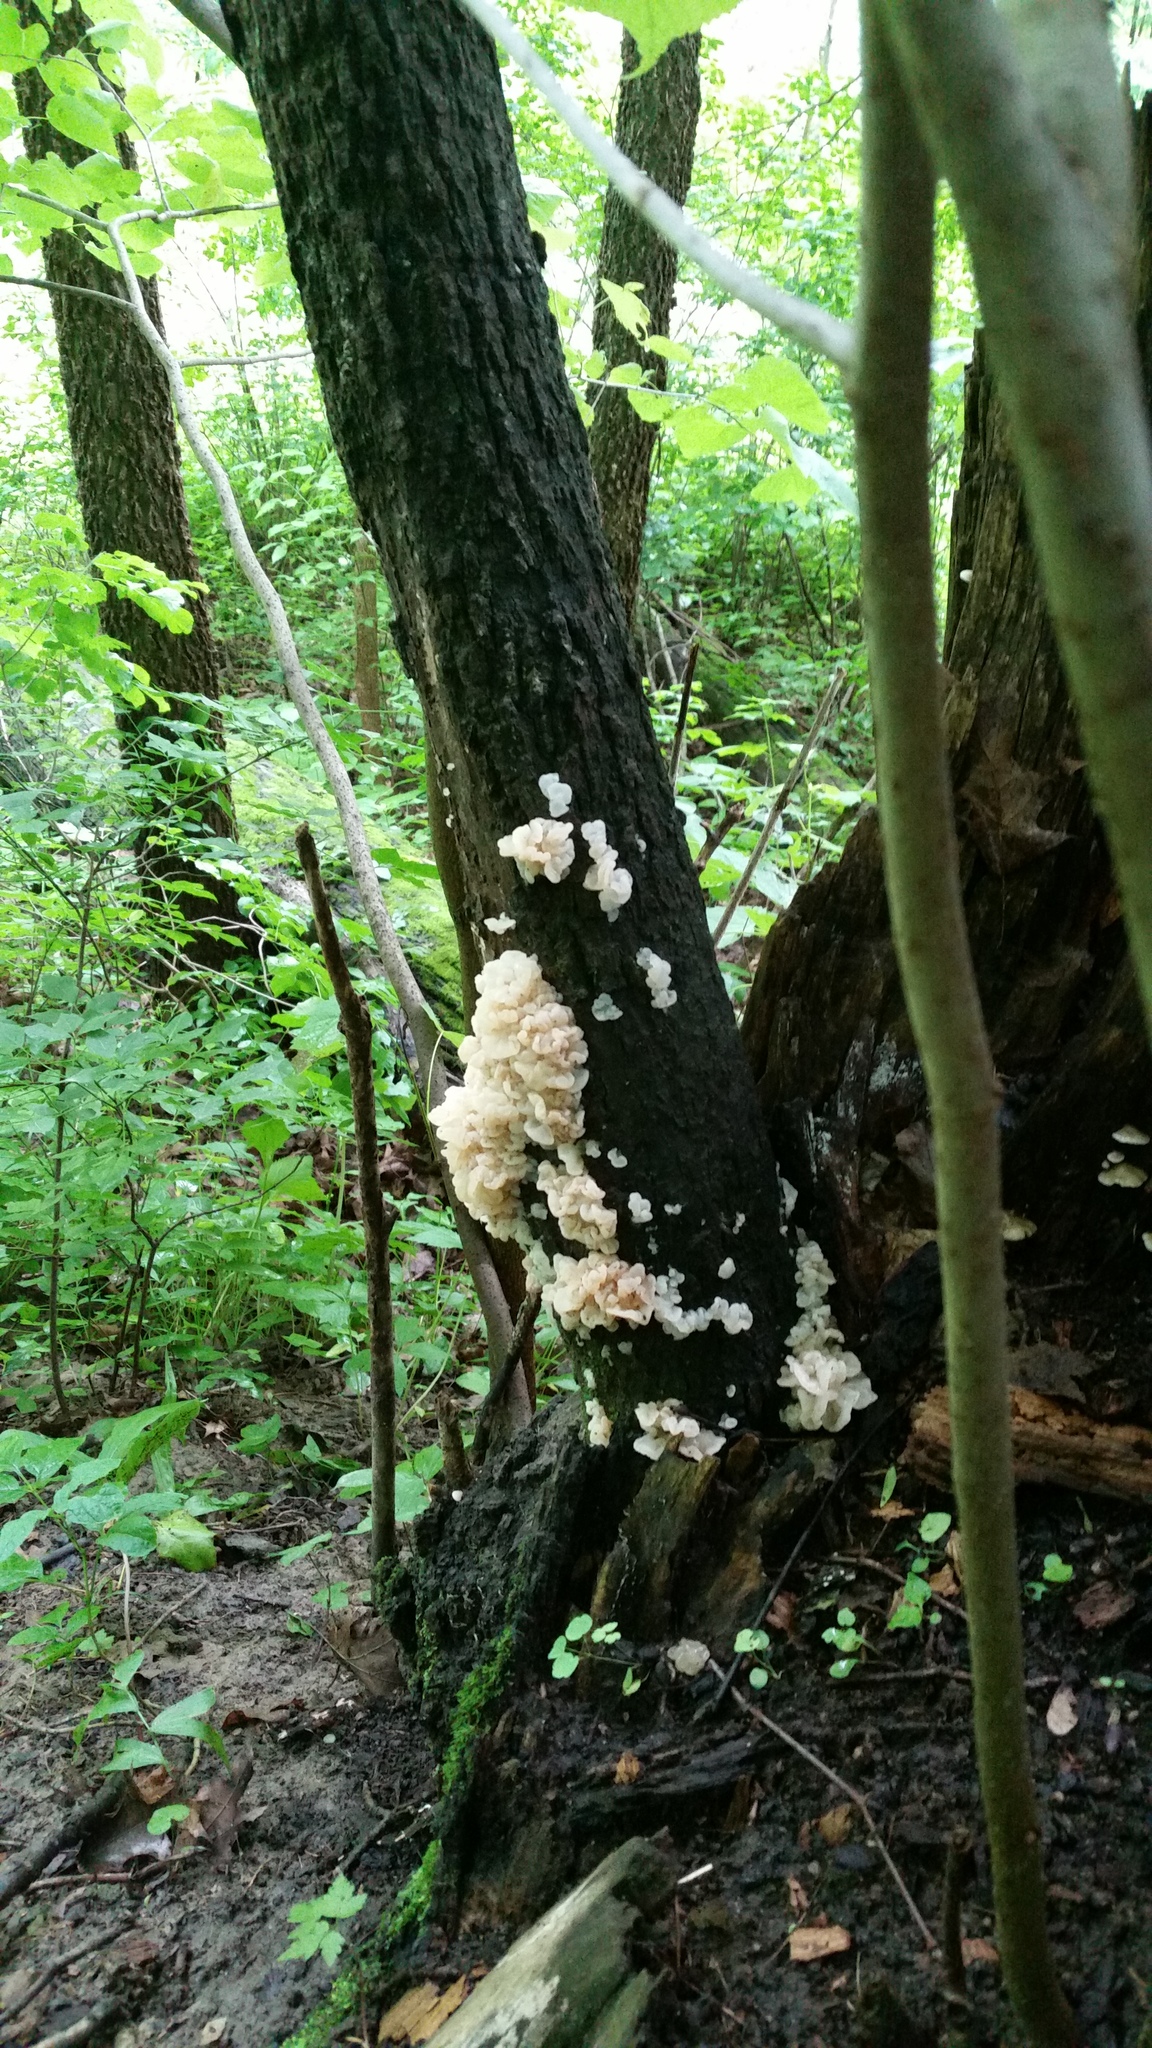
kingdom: Fungi
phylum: Basidiomycota
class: Agaricomycetes
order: Auriculariales
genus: Ductifera
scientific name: Ductifera pululahuana
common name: White jelly fungus
